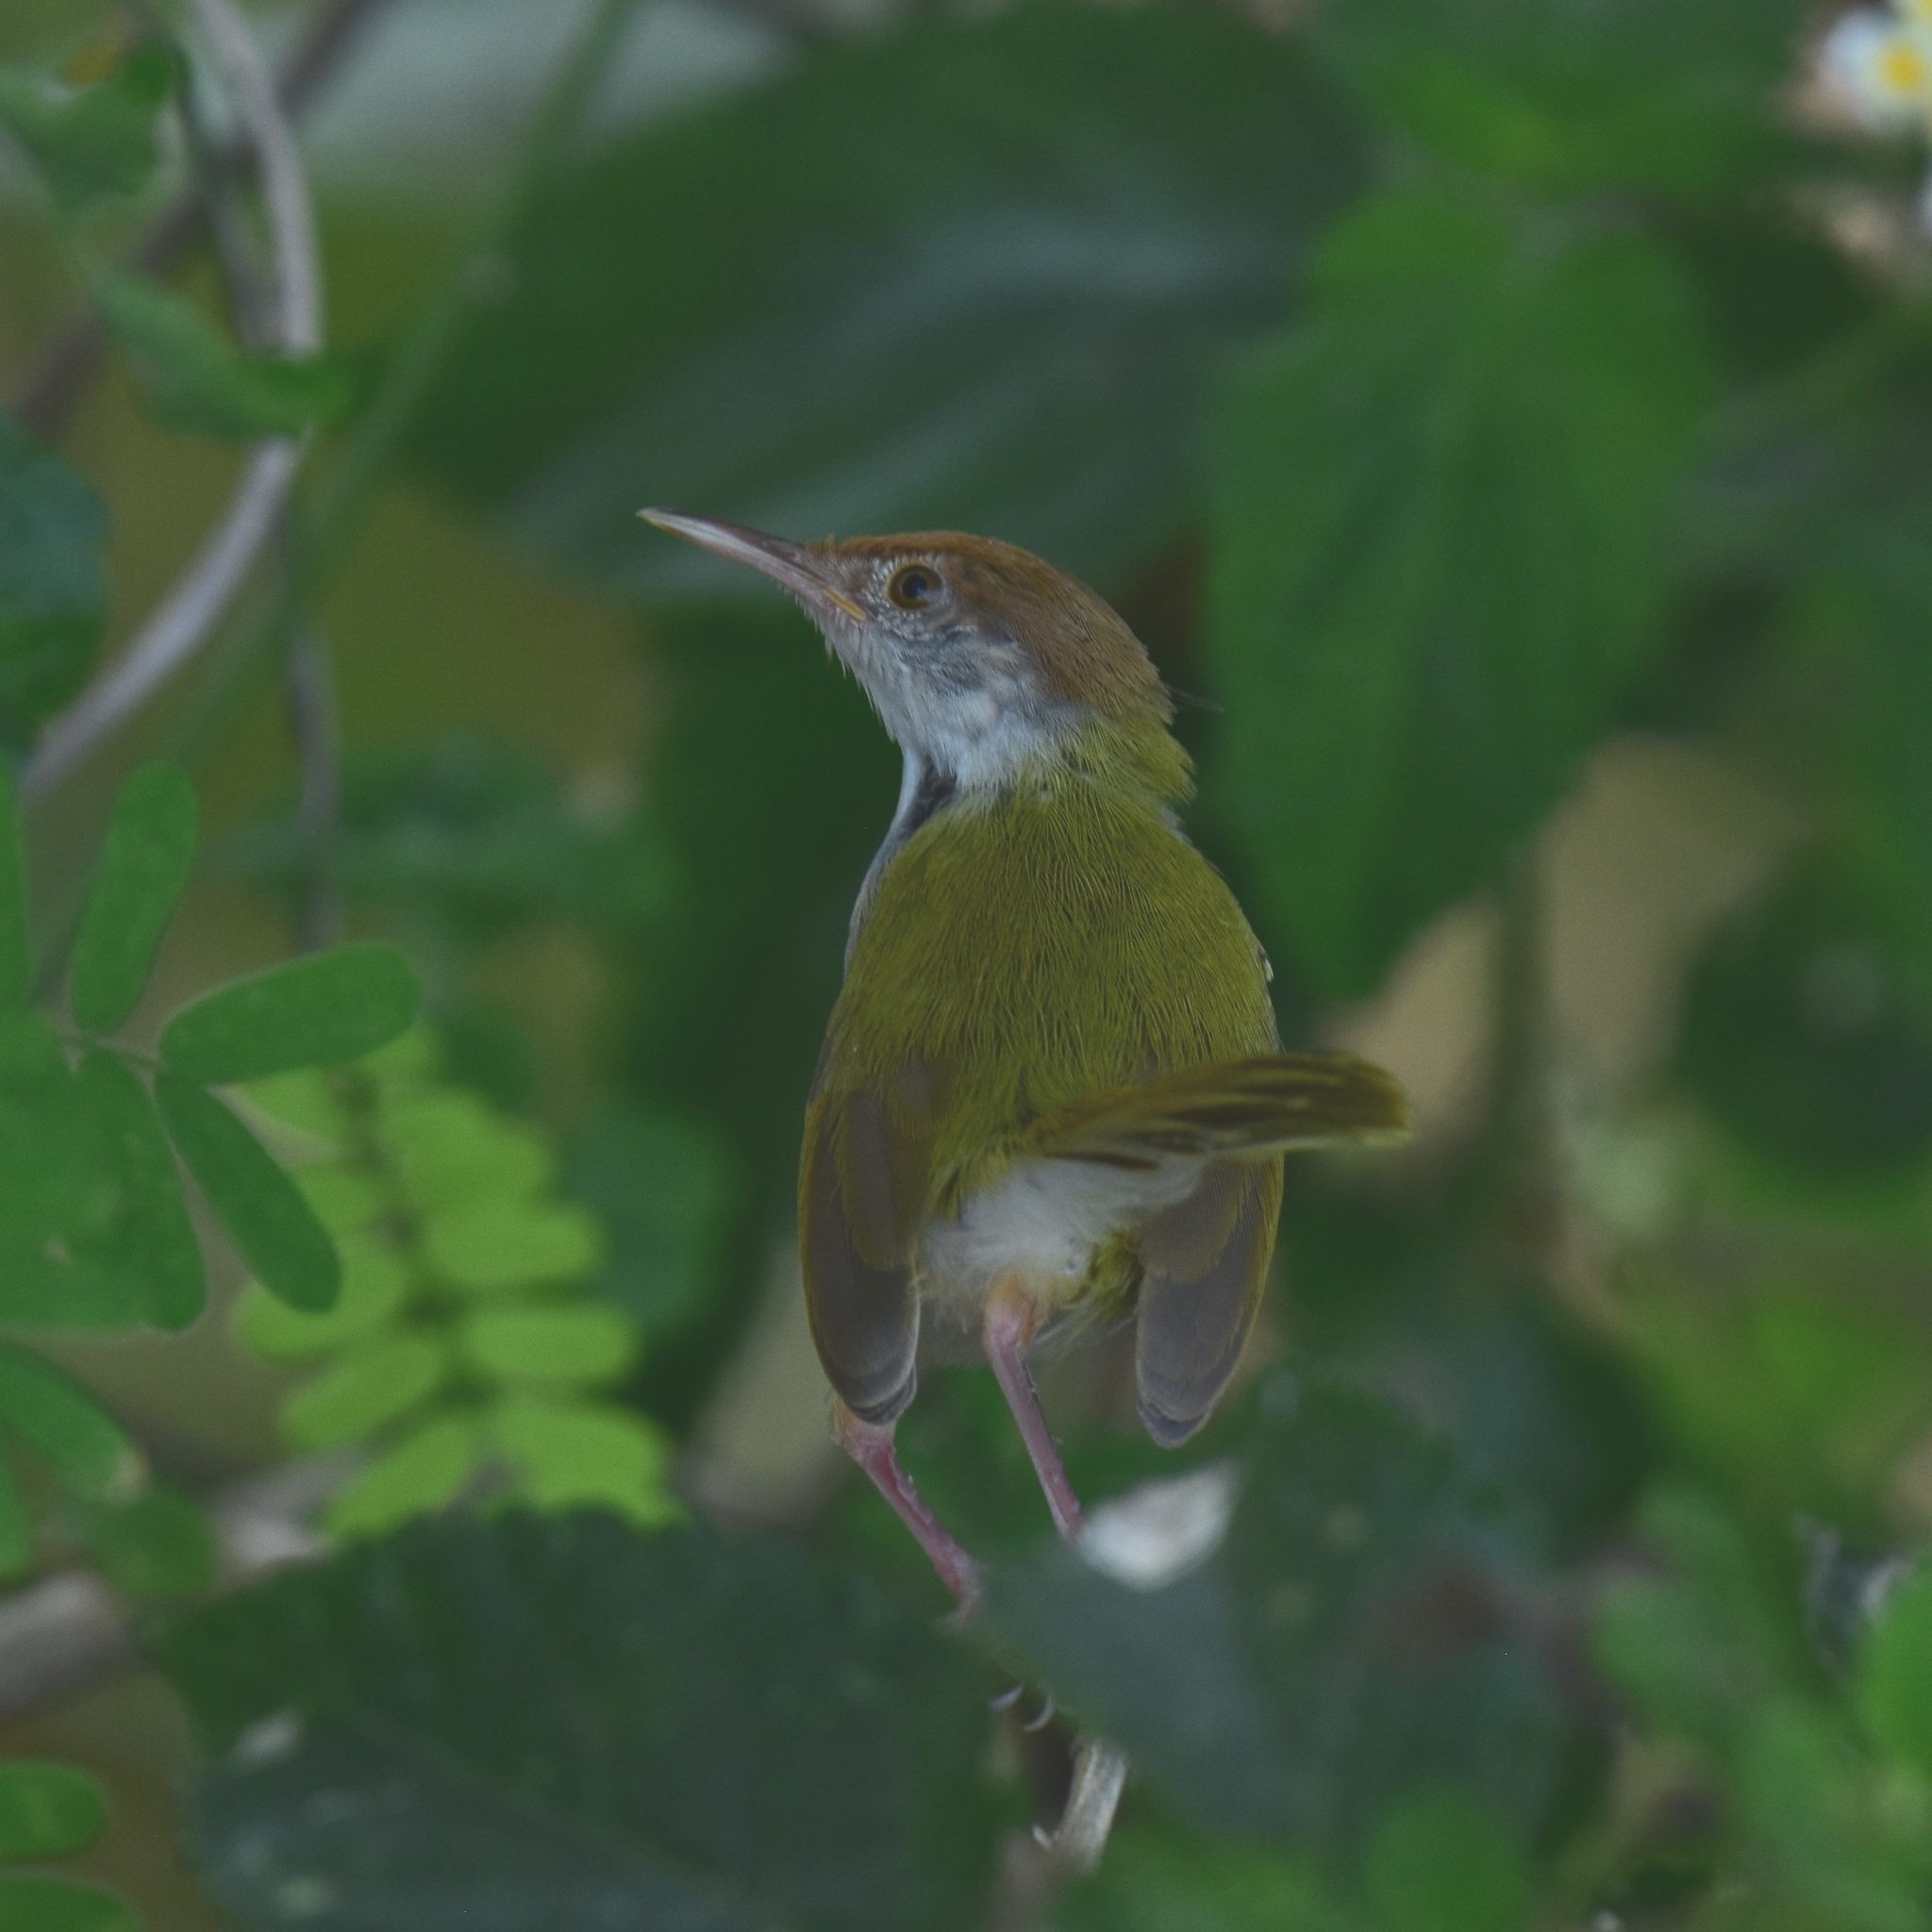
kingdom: Animalia
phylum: Chordata
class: Aves
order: Passeriformes
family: Cisticolidae
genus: Orthotomus
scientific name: Orthotomus sutorius
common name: Common tailorbird
